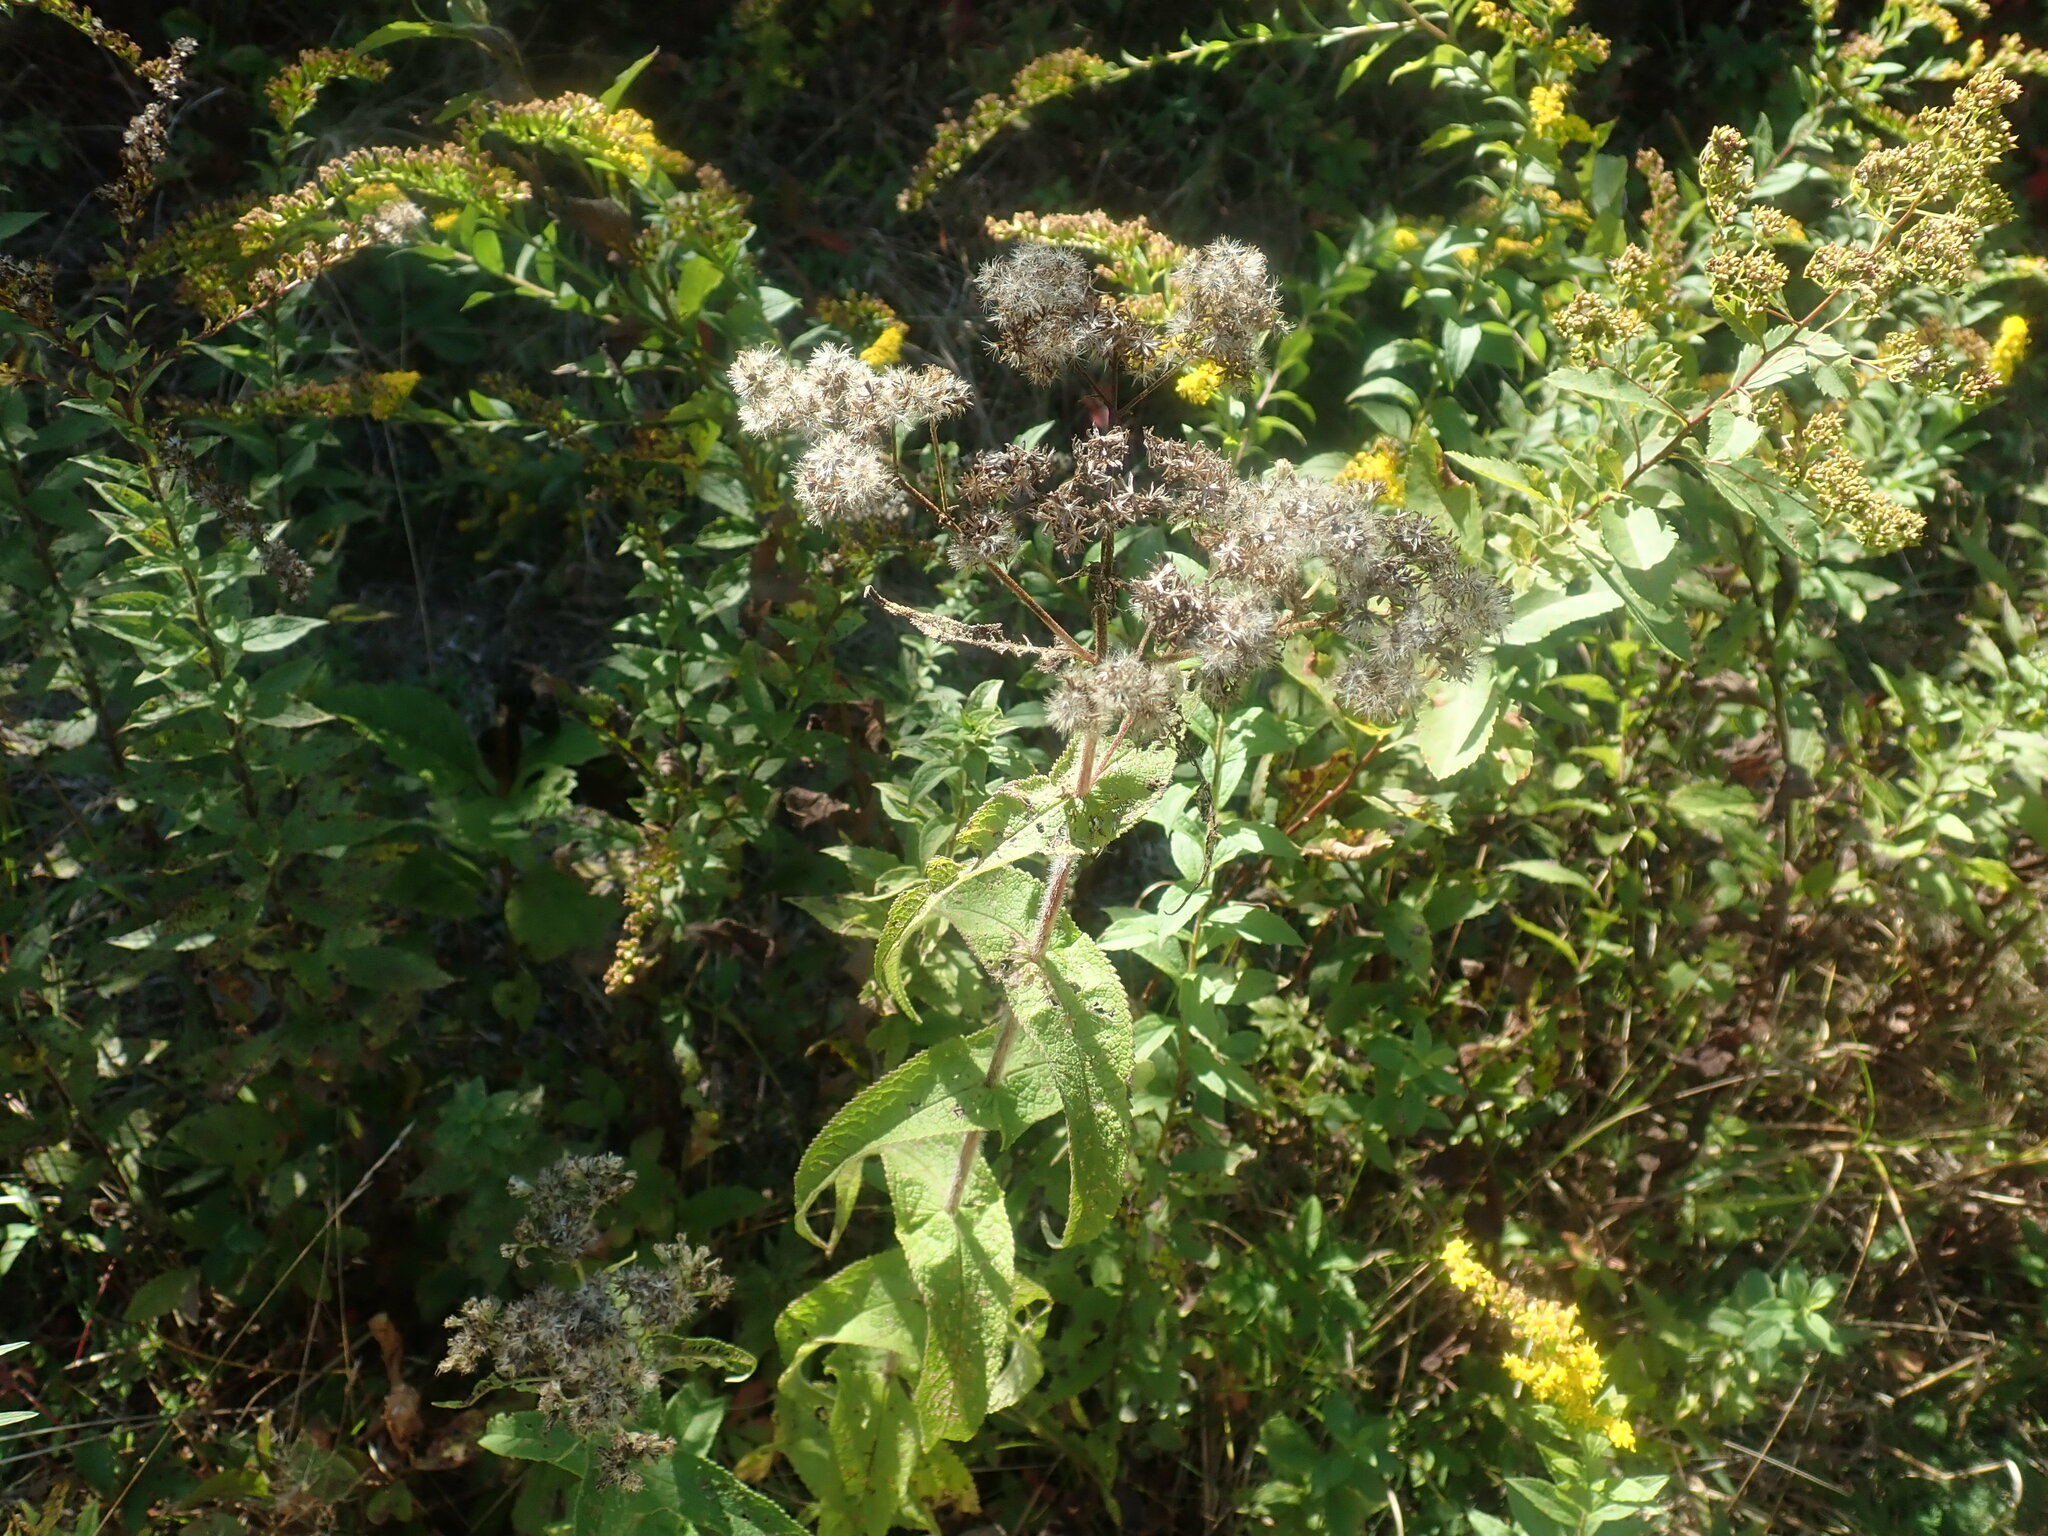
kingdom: Plantae
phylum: Tracheophyta
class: Magnoliopsida
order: Asterales
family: Asteraceae
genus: Eupatorium
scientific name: Eupatorium perfoliatum
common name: Boneset
